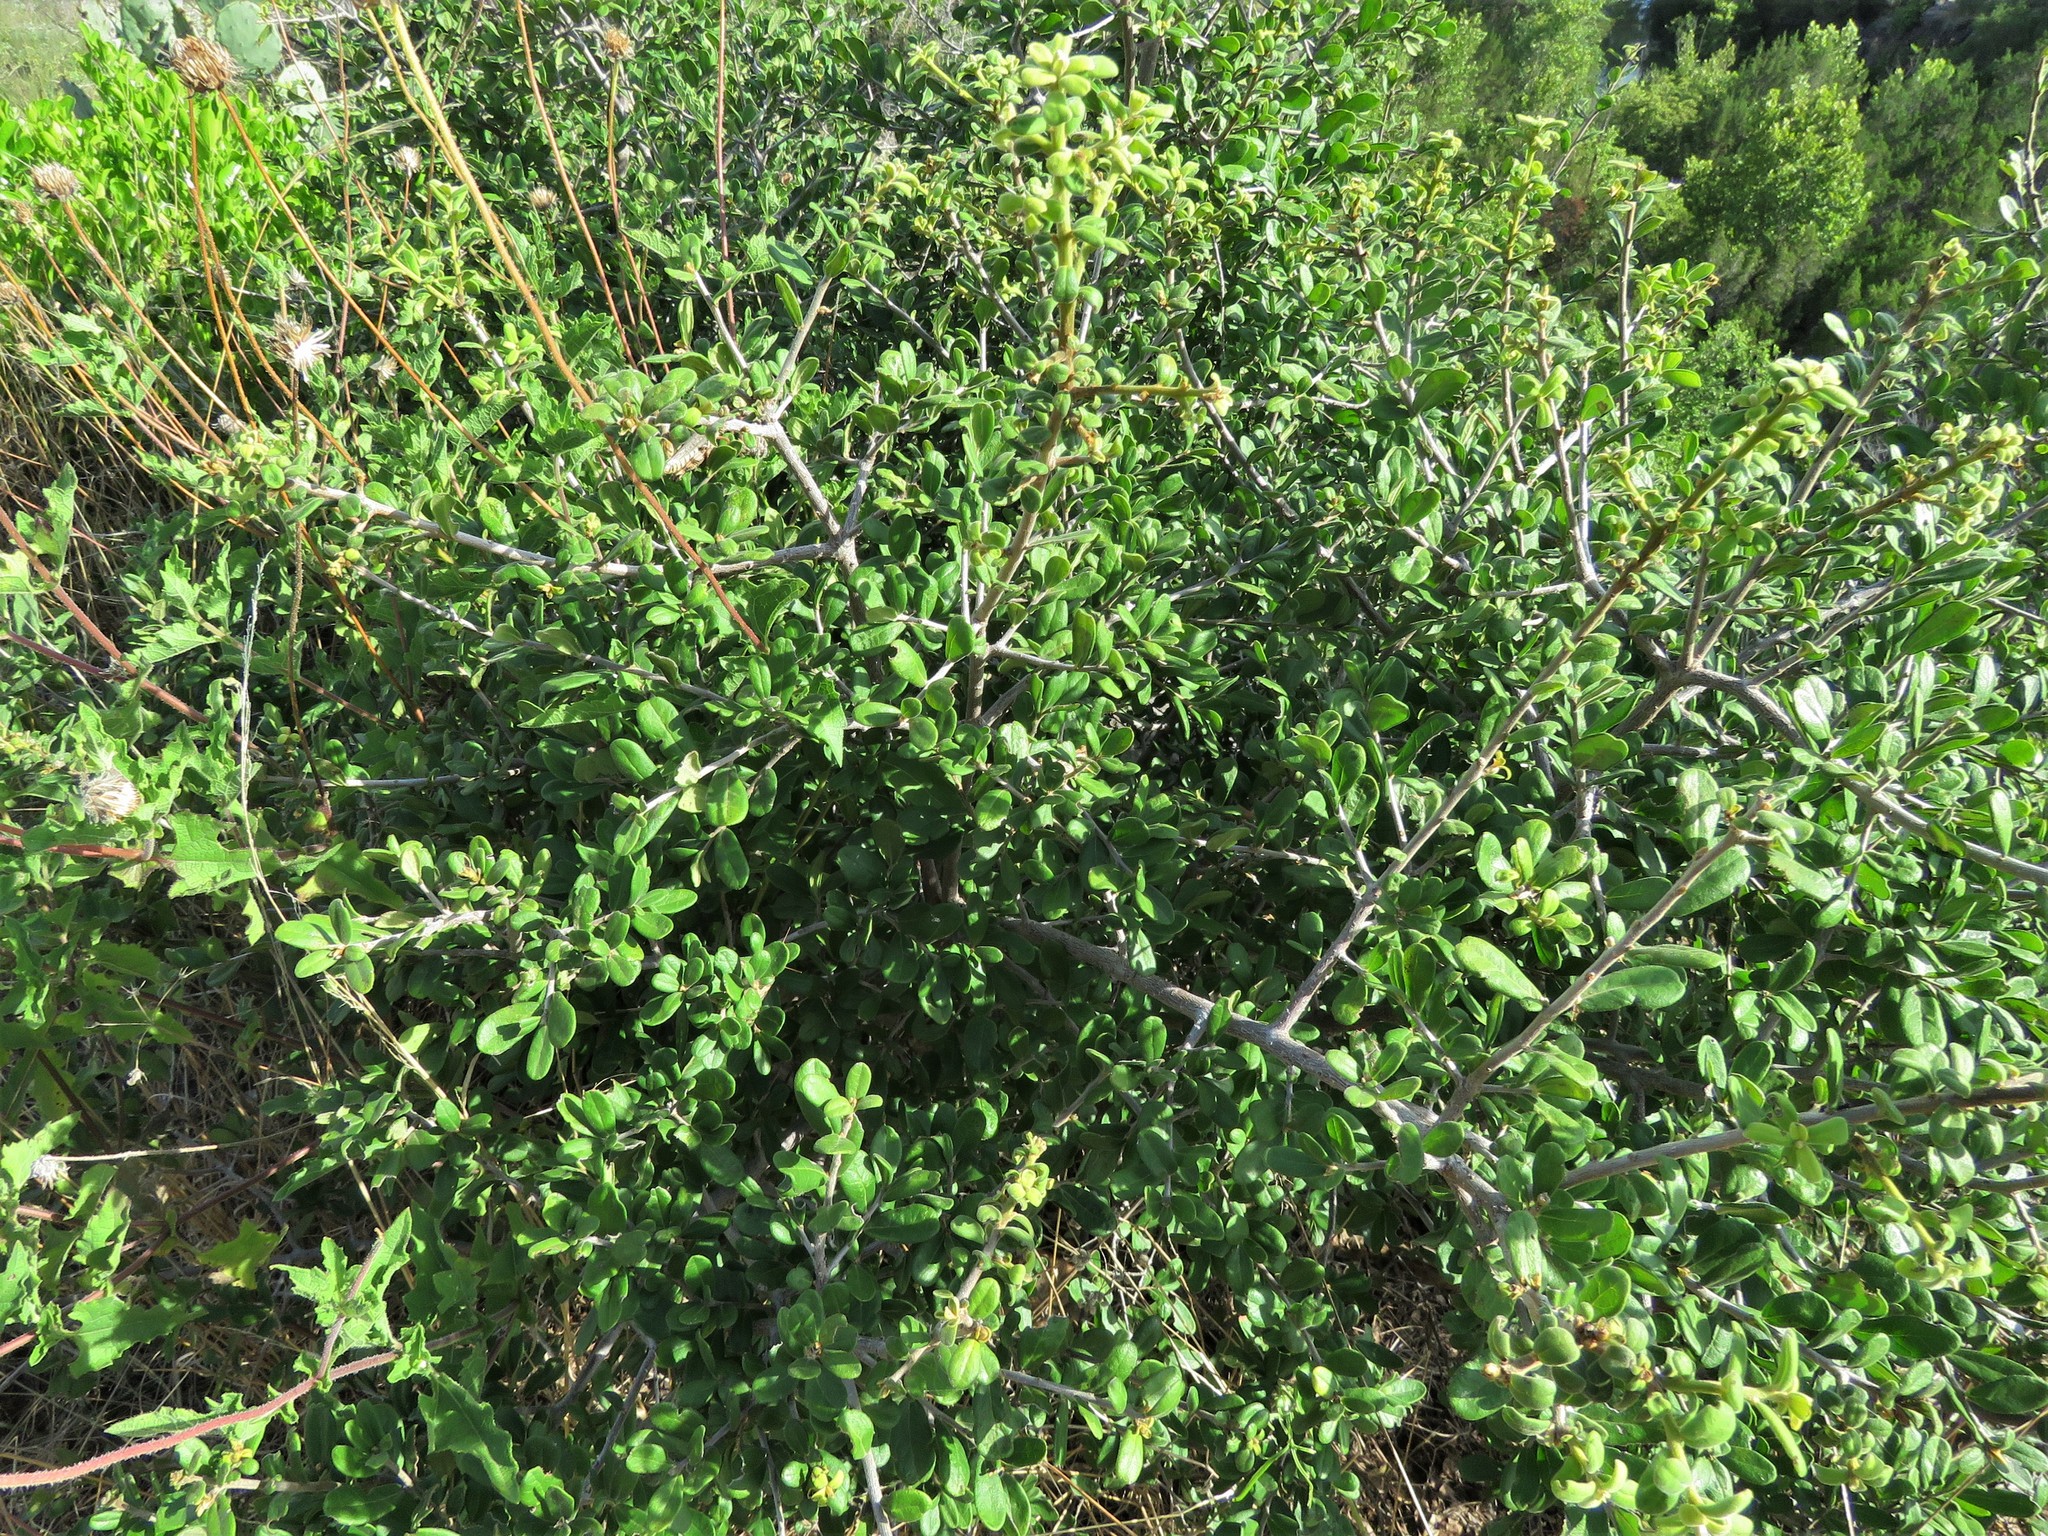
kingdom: Plantae
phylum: Tracheophyta
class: Magnoliopsida
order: Ericales
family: Ebenaceae
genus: Diospyros
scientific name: Diospyros texana
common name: Texas persimmon
